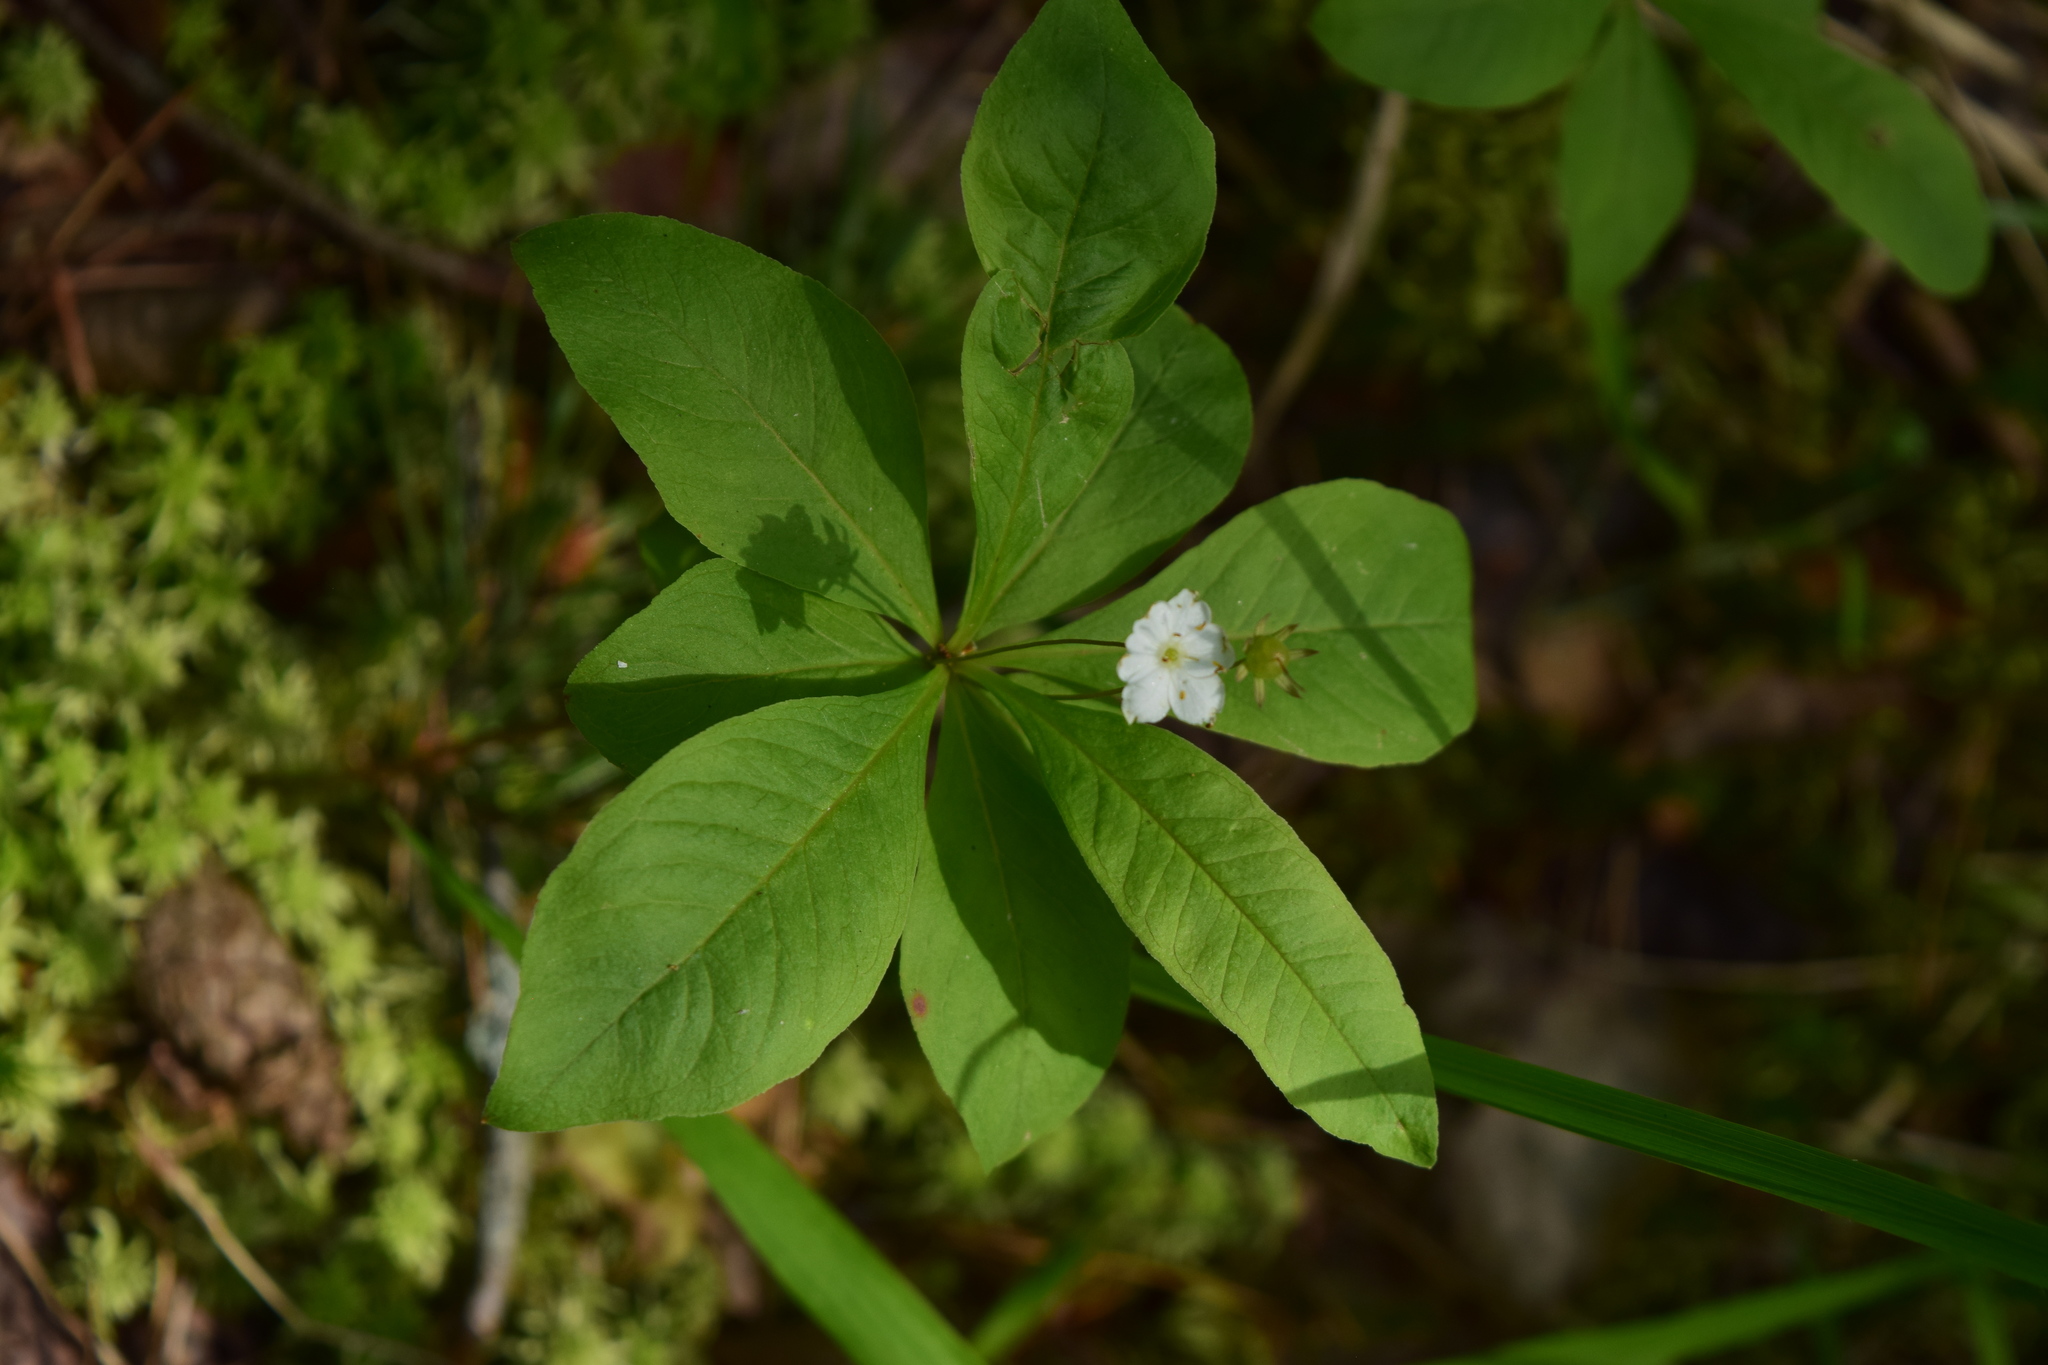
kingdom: Plantae
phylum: Tracheophyta
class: Magnoliopsida
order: Ericales
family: Primulaceae
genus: Lysimachia
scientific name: Lysimachia europaea
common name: Arctic starflower
